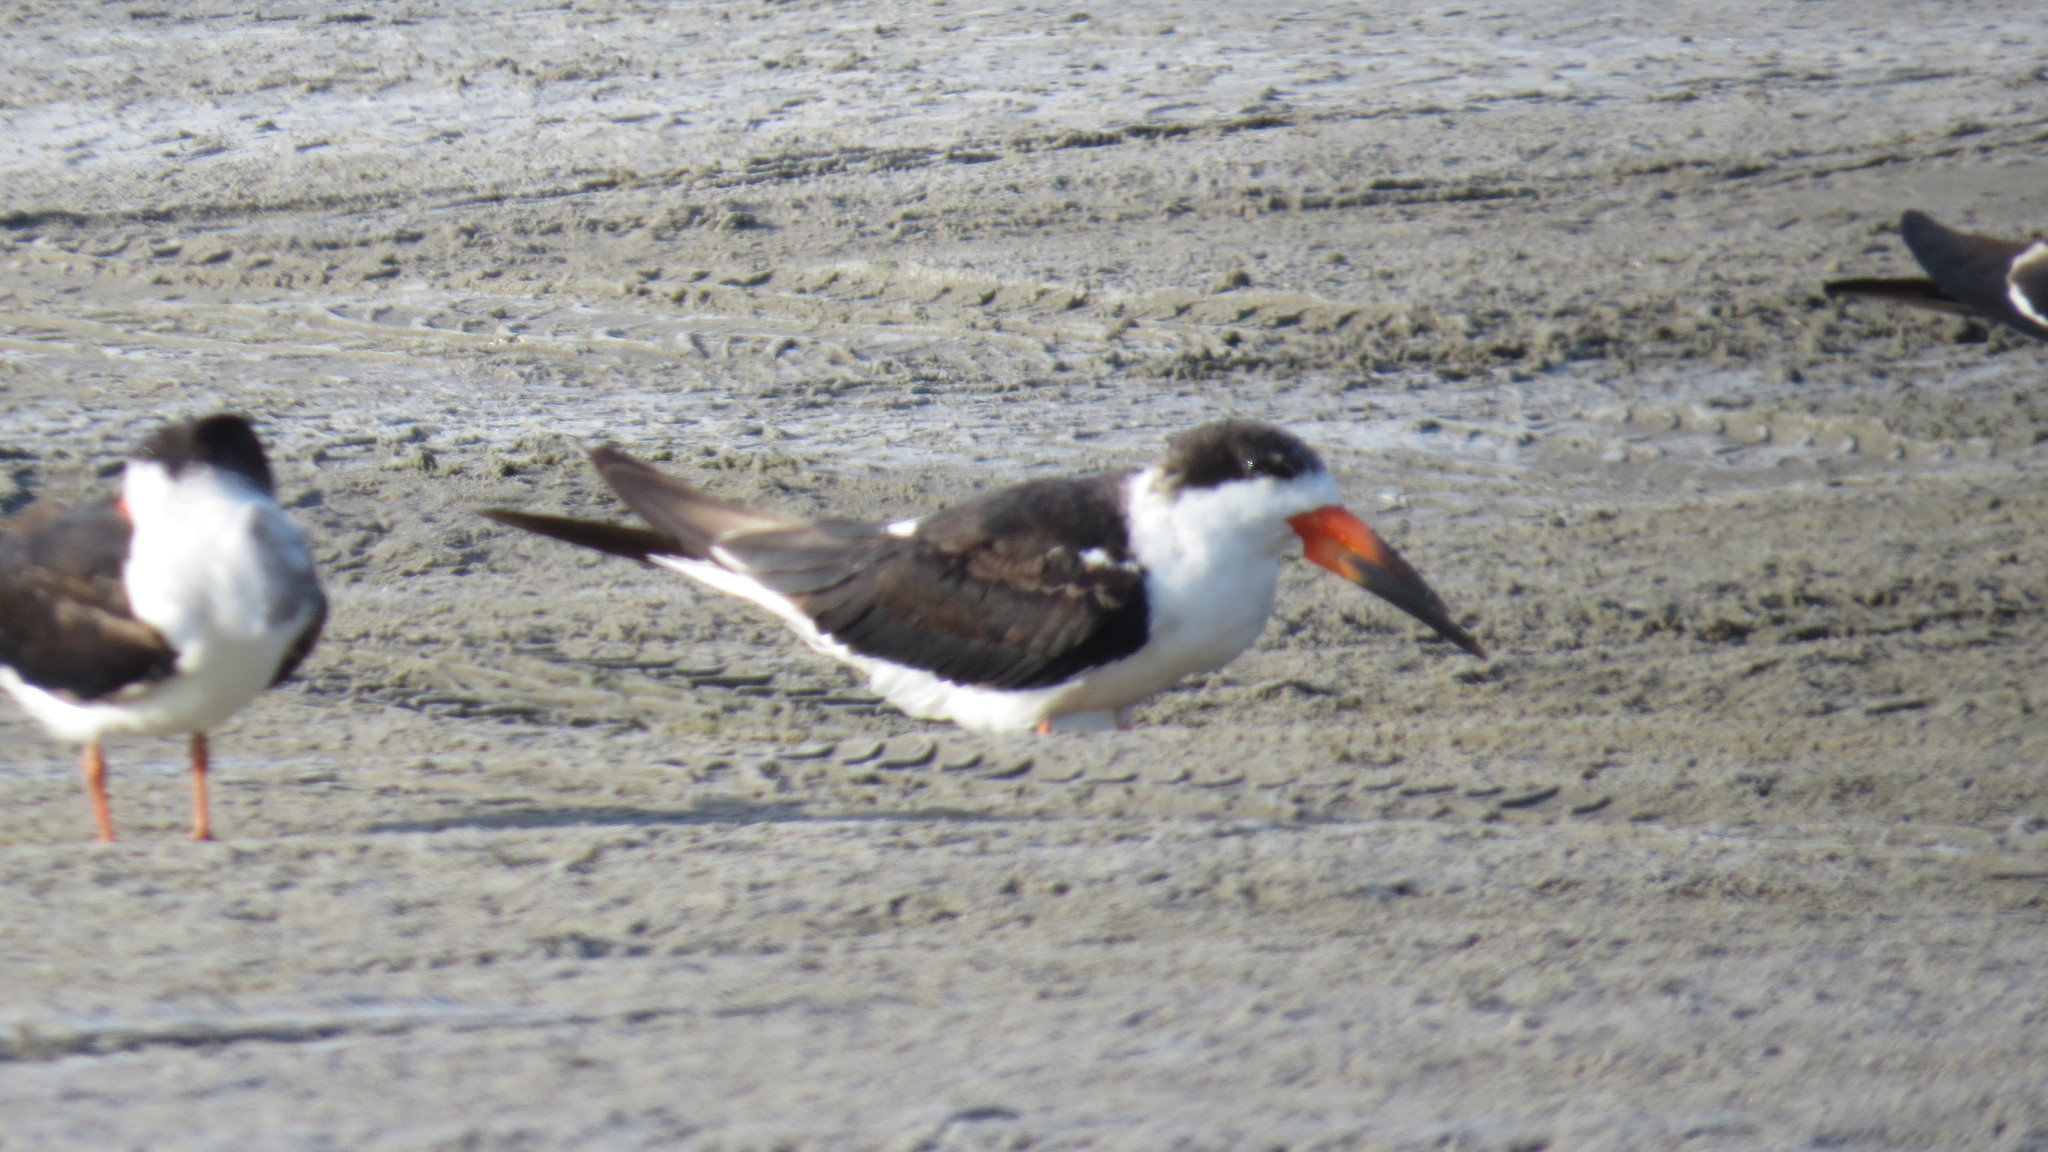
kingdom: Animalia
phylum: Chordata
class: Aves
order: Charadriiformes
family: Laridae
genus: Rynchops
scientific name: Rynchops niger
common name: Black skimmer
